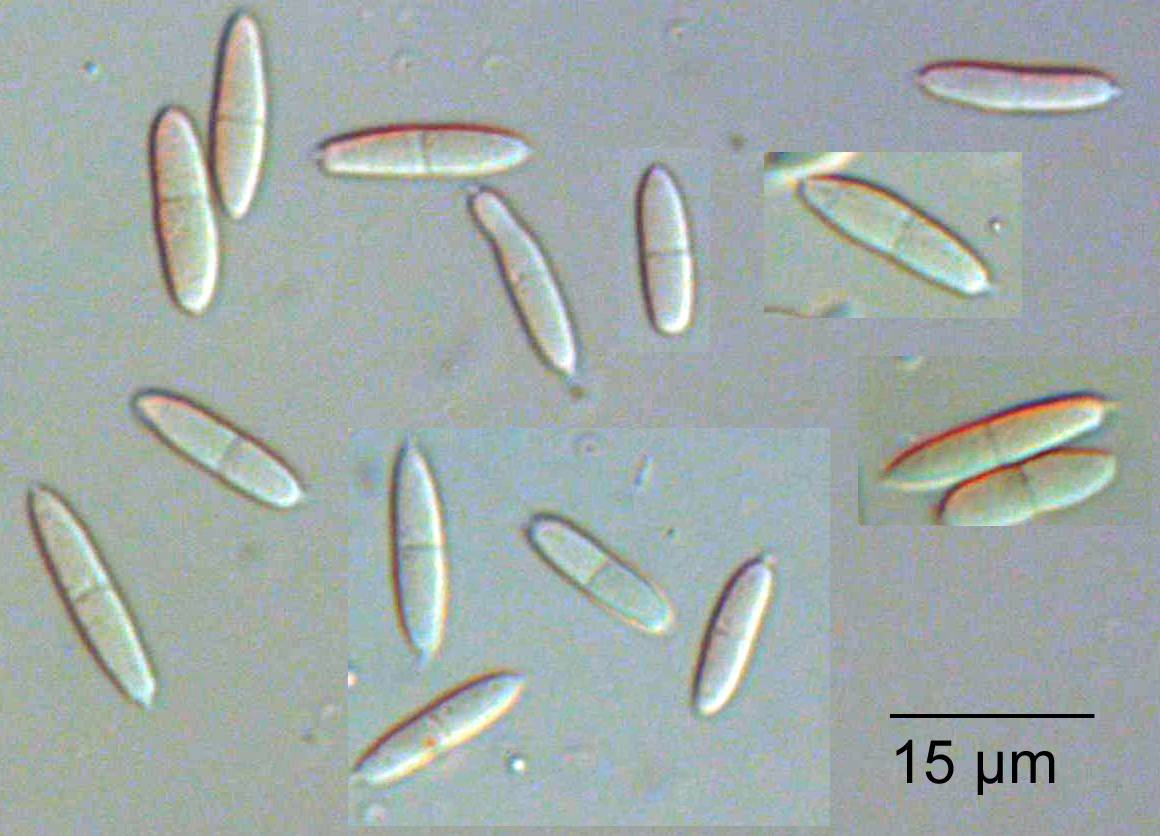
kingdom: Fungi
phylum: Ascomycota
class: Dothideomycetes
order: Pleosporales
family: Phaeosphaeriaceae
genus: Sphaerellopsis
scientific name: Sphaerellopsis filum
